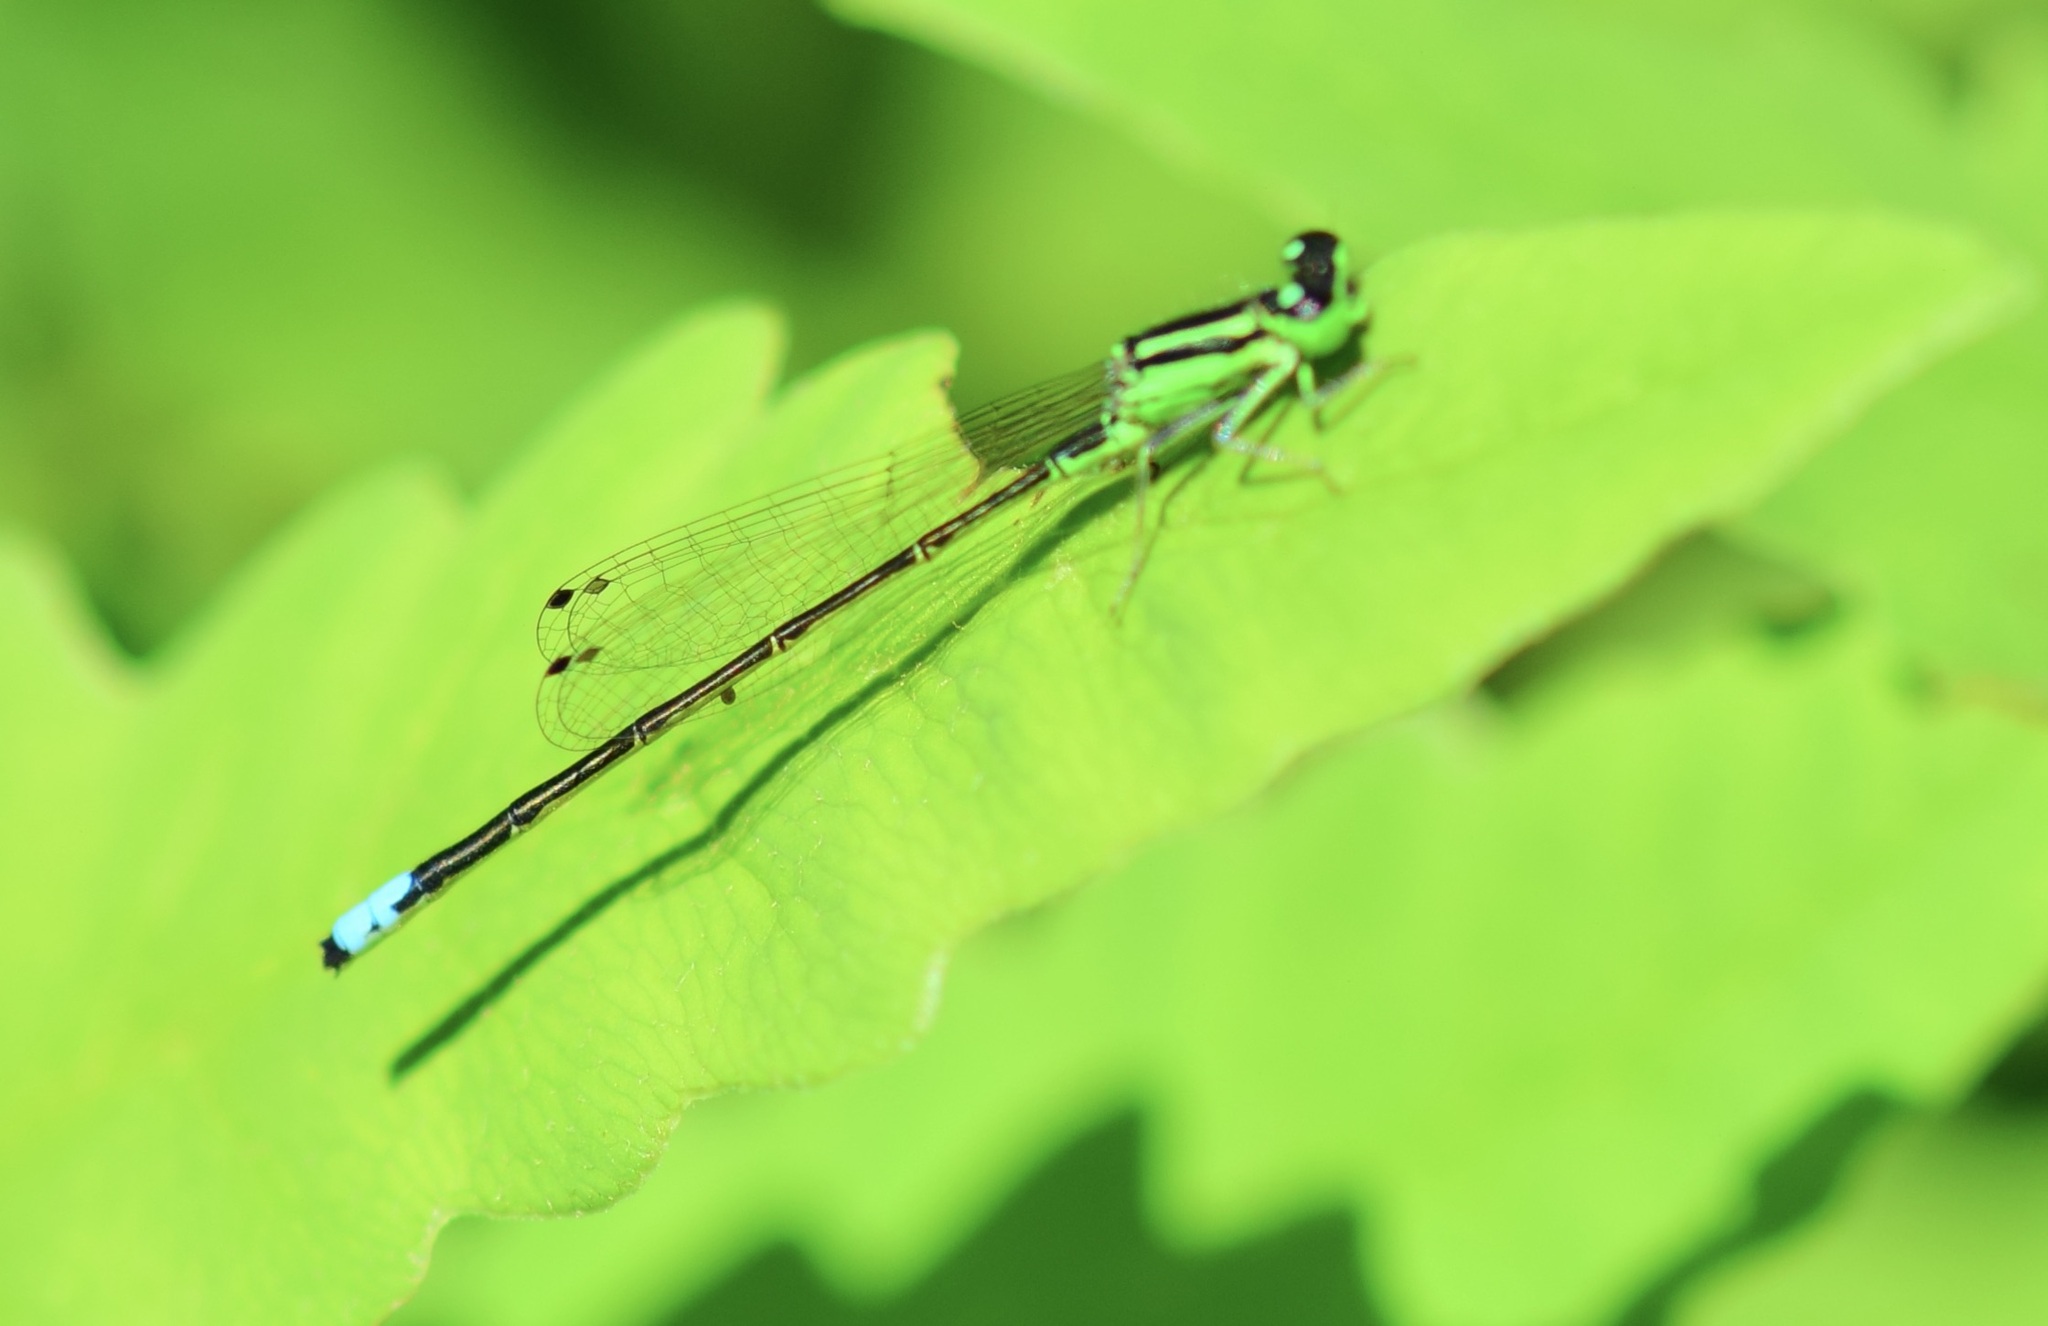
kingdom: Animalia
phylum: Arthropoda
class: Insecta
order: Odonata
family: Coenagrionidae
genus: Ischnura
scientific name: Ischnura verticalis
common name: Eastern forktail
